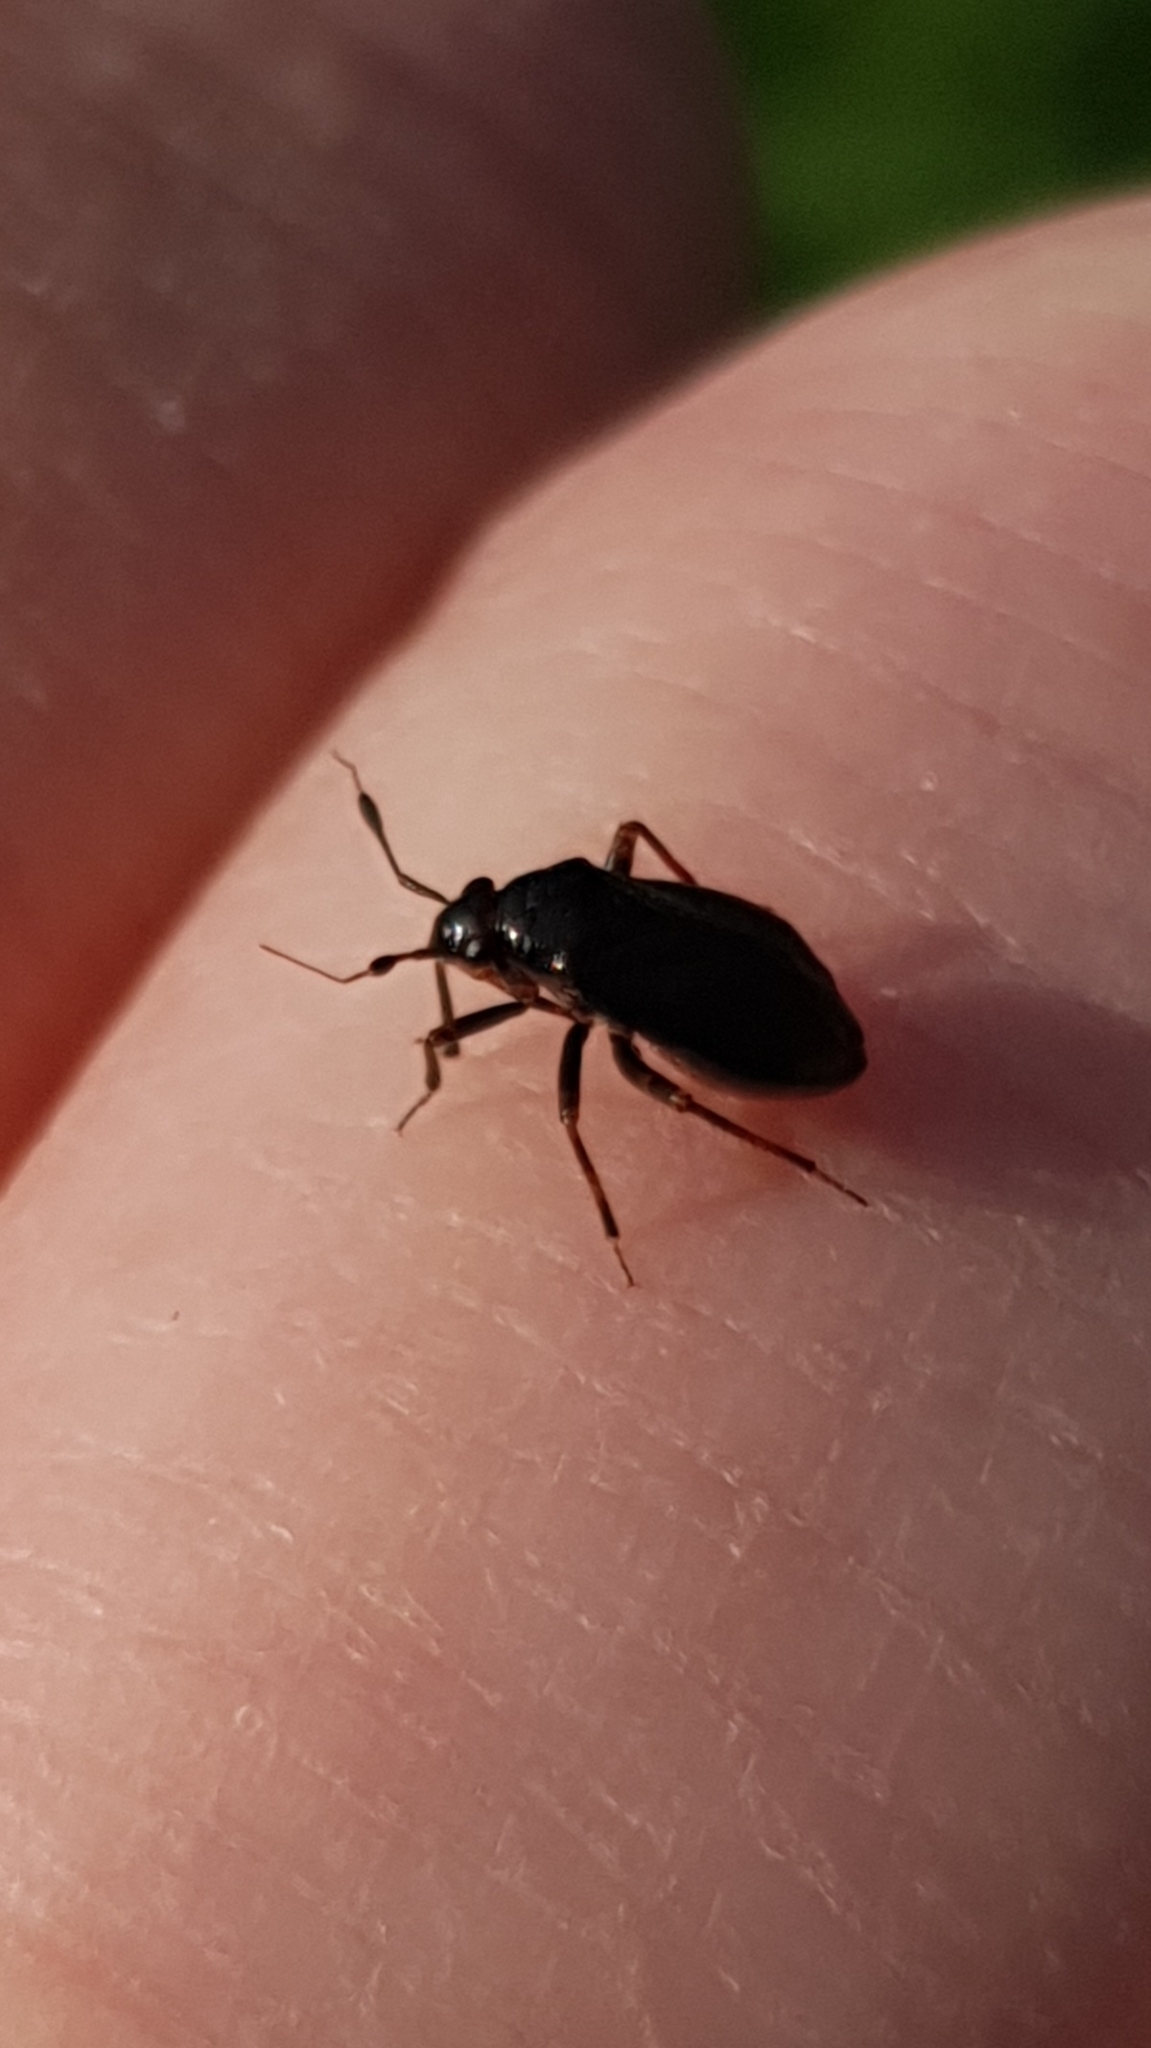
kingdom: Animalia
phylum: Arthropoda
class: Insecta
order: Hemiptera
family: Miridae
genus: Capsus
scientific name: Capsus ater
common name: Black plant bug
